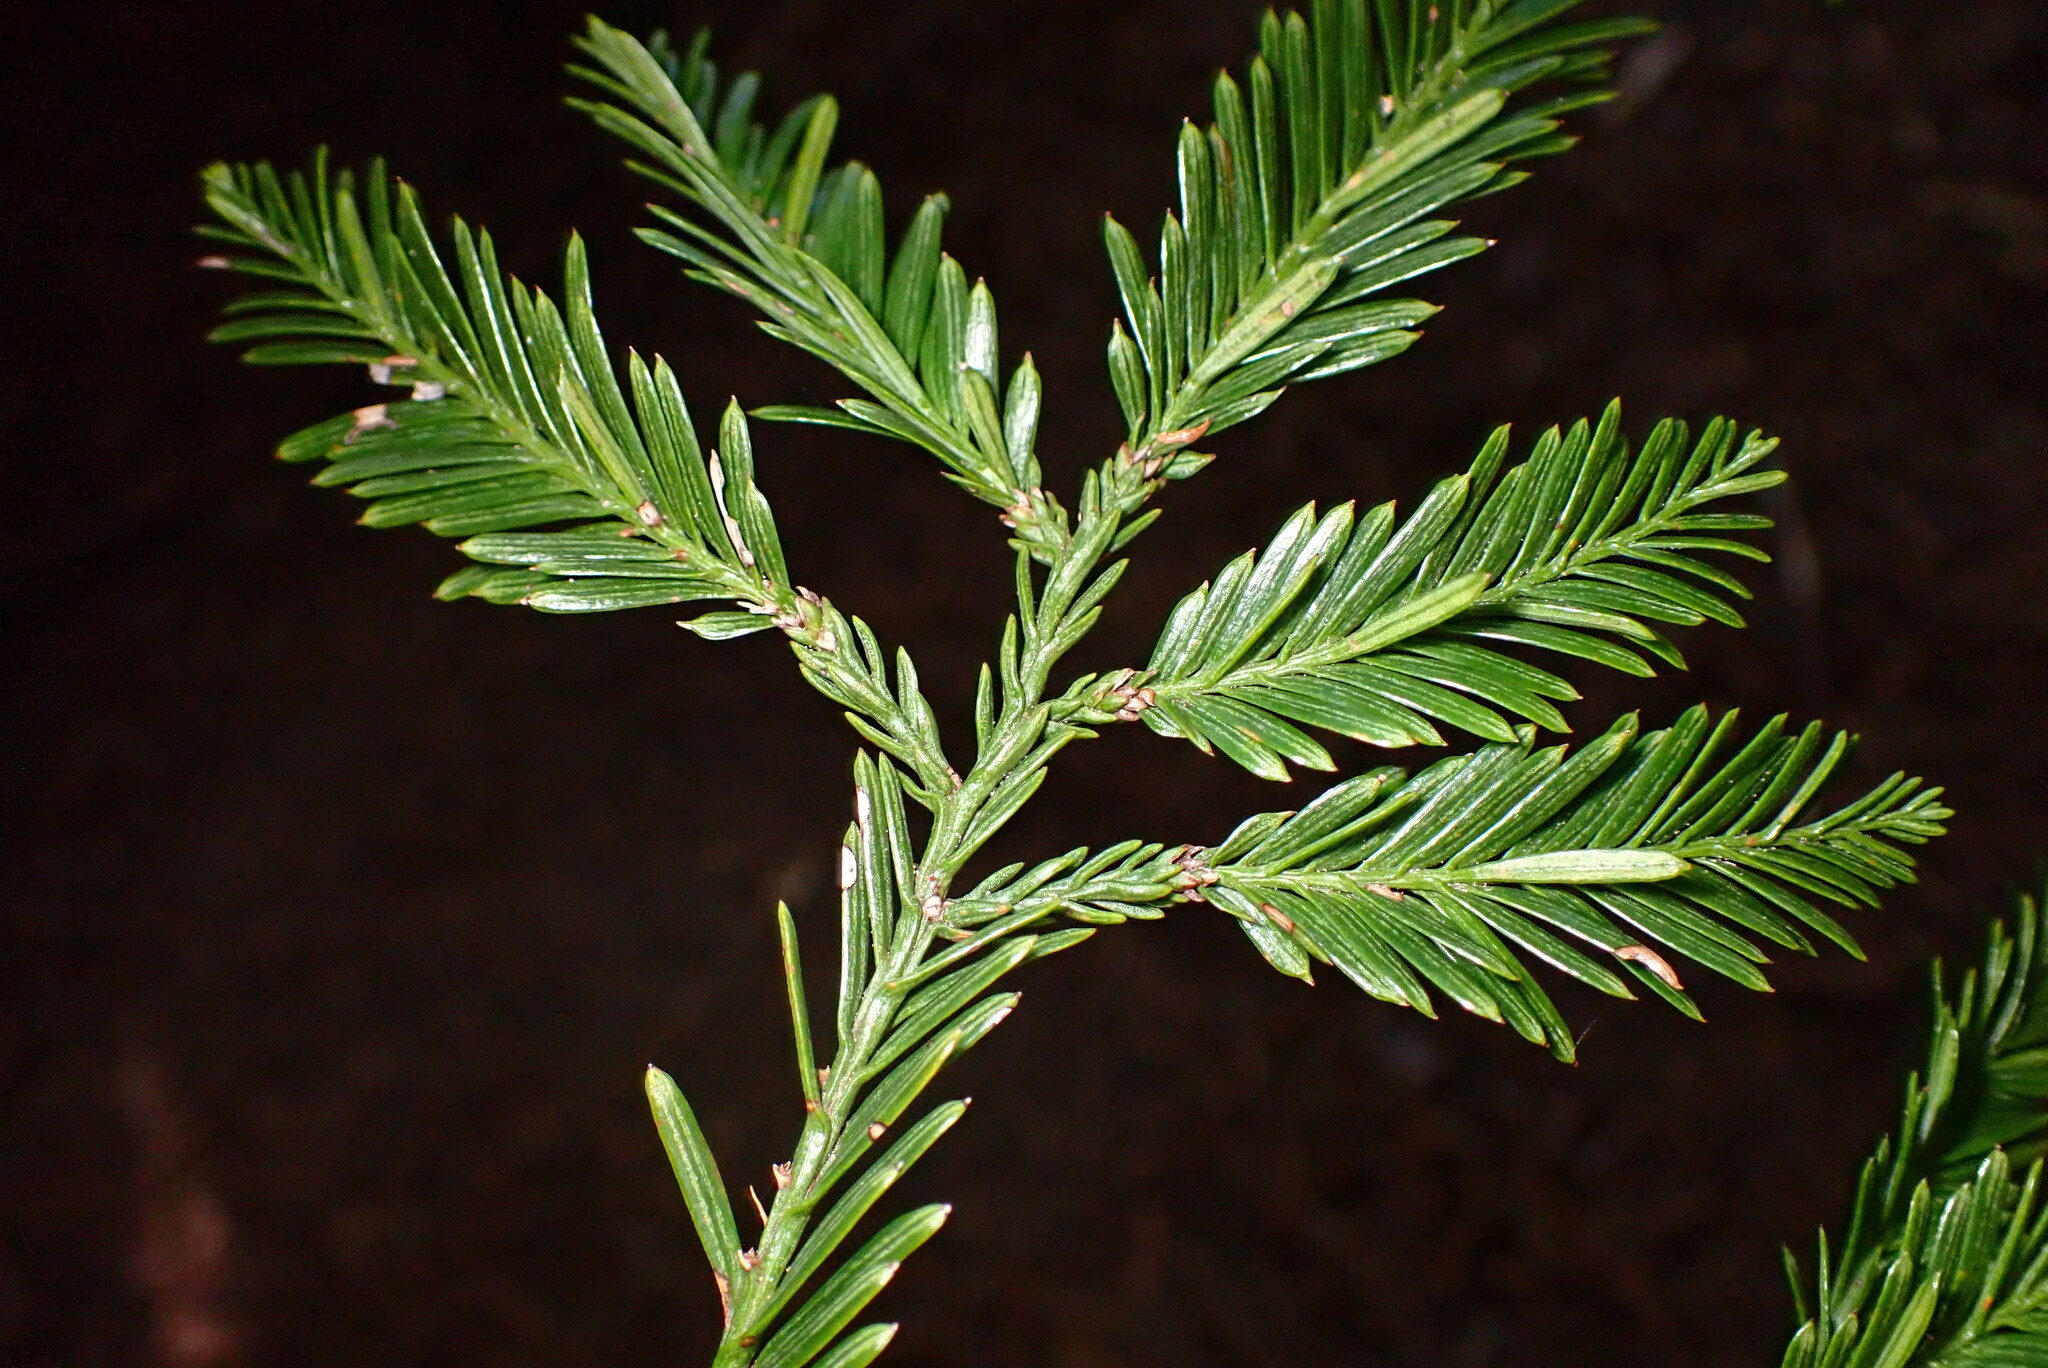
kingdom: Plantae
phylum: Tracheophyta
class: Pinopsida
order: Pinales
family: Cupressaceae
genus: Sequoia
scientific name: Sequoia sempervirens
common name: Coast redwood
